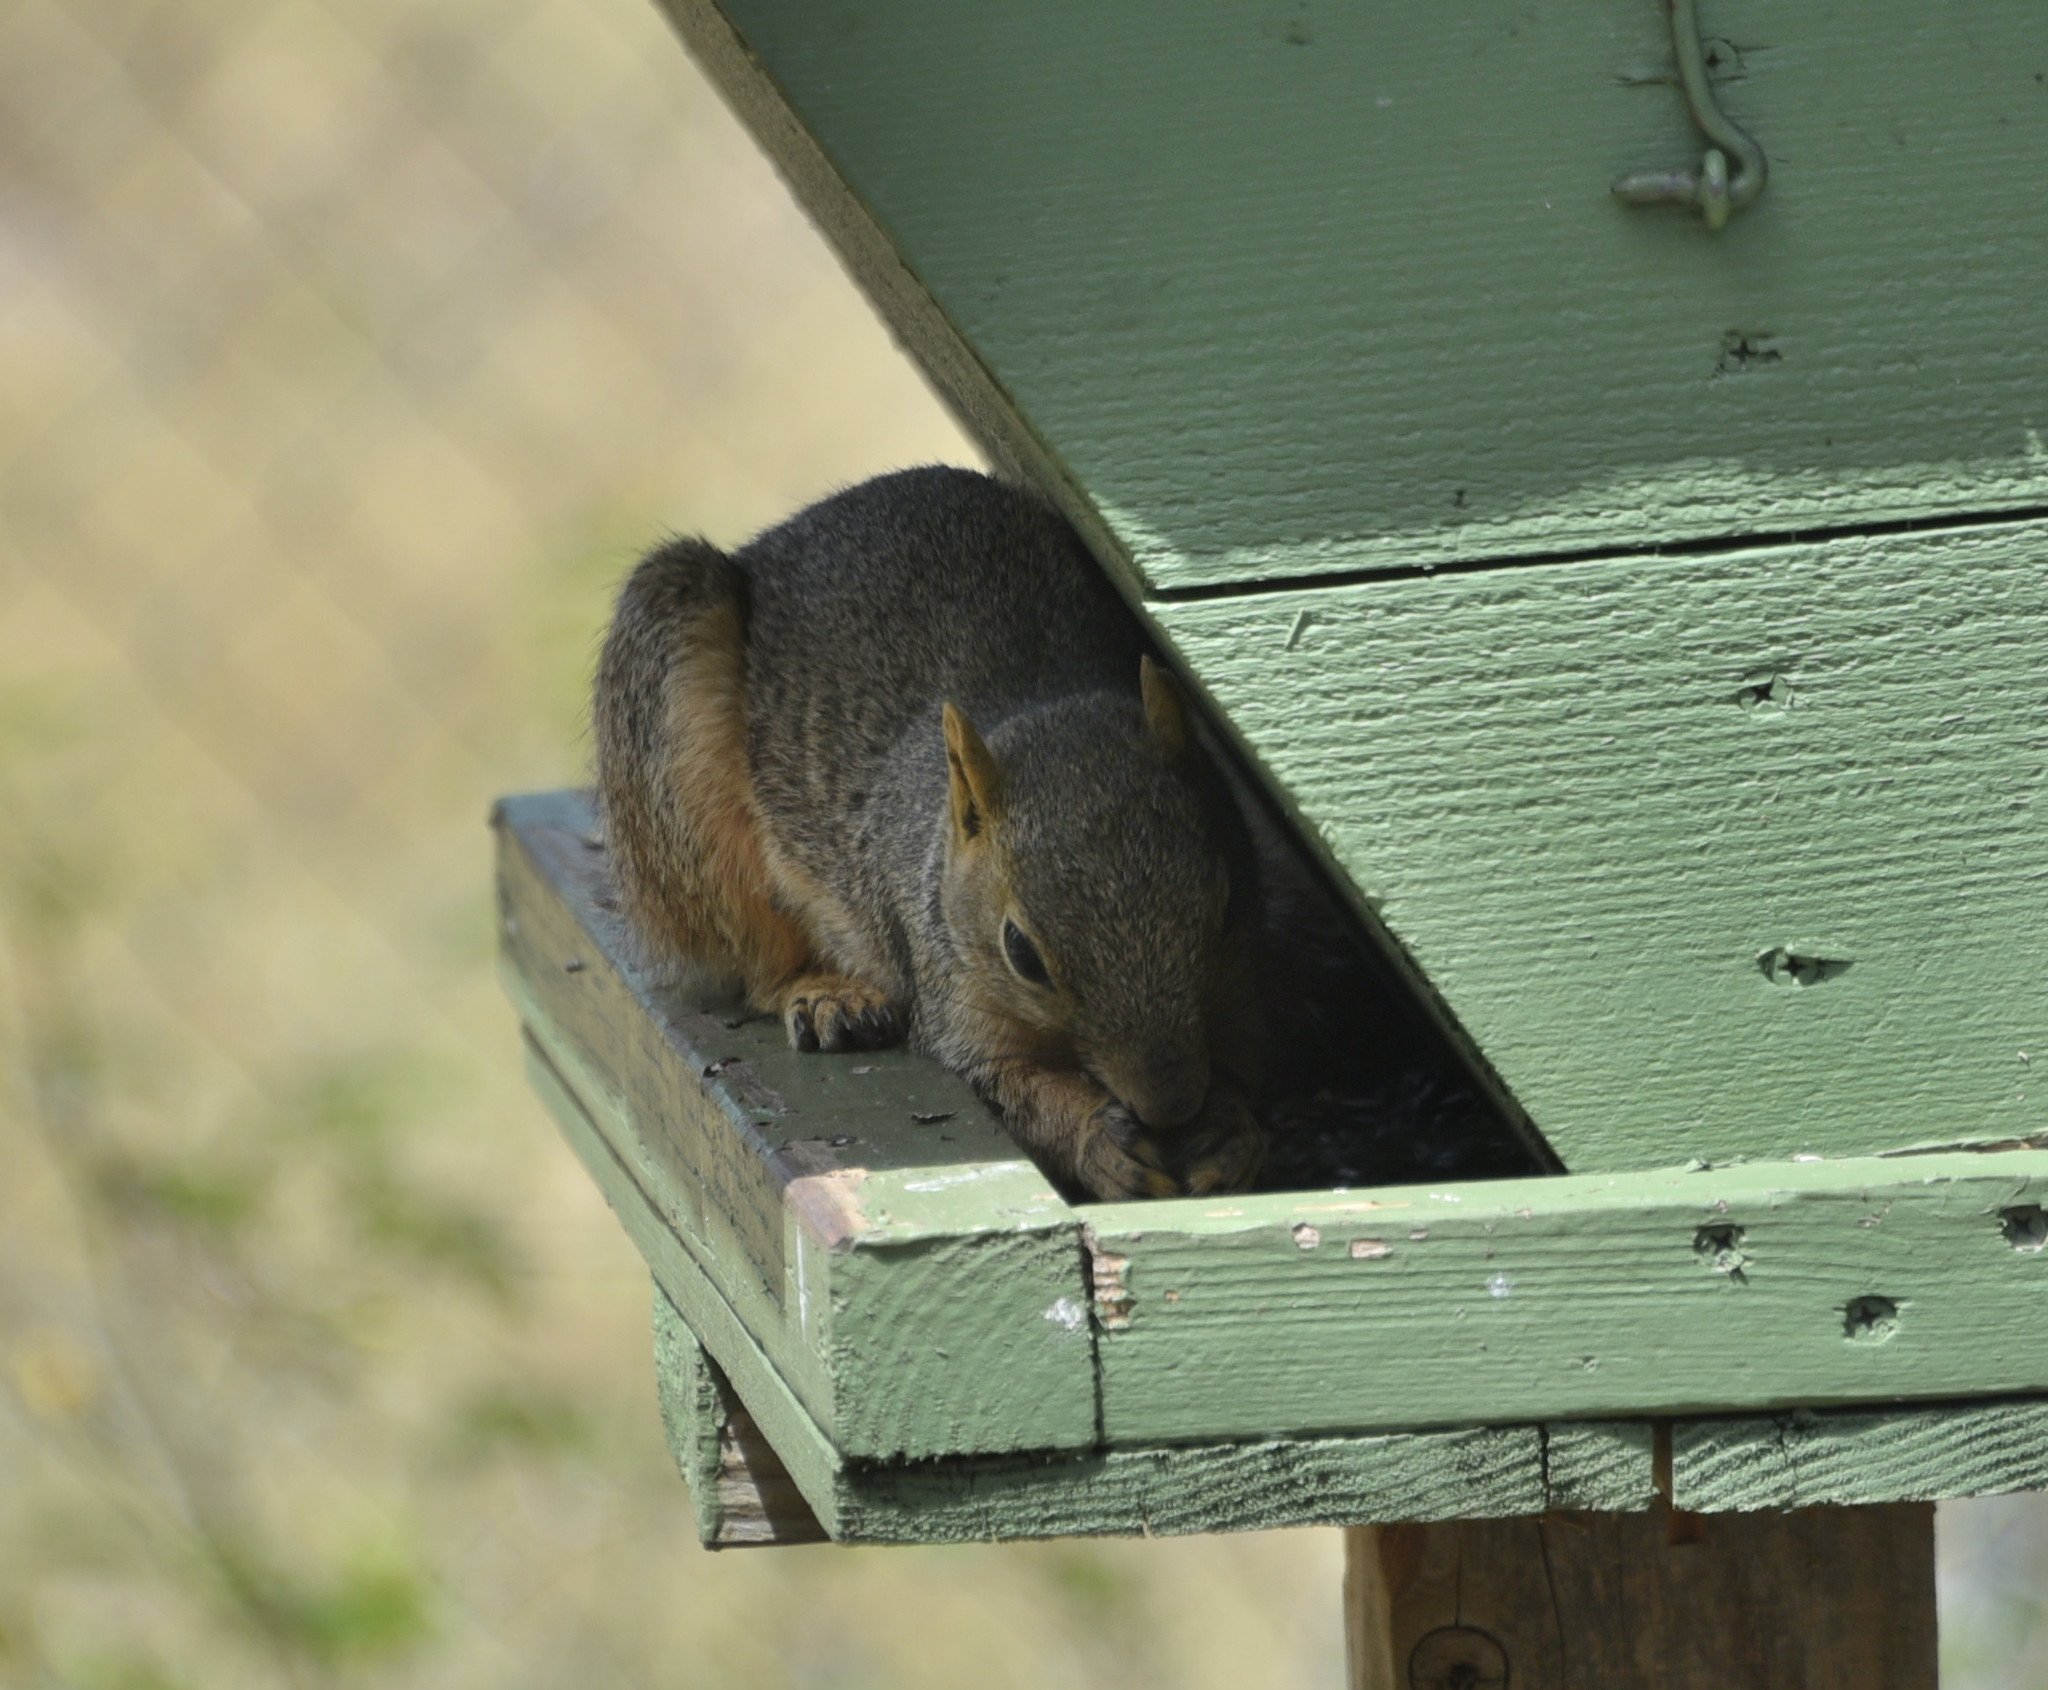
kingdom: Animalia
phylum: Chordata
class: Mammalia
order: Rodentia
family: Sciuridae
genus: Sciurus
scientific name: Sciurus niger
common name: Fox squirrel
